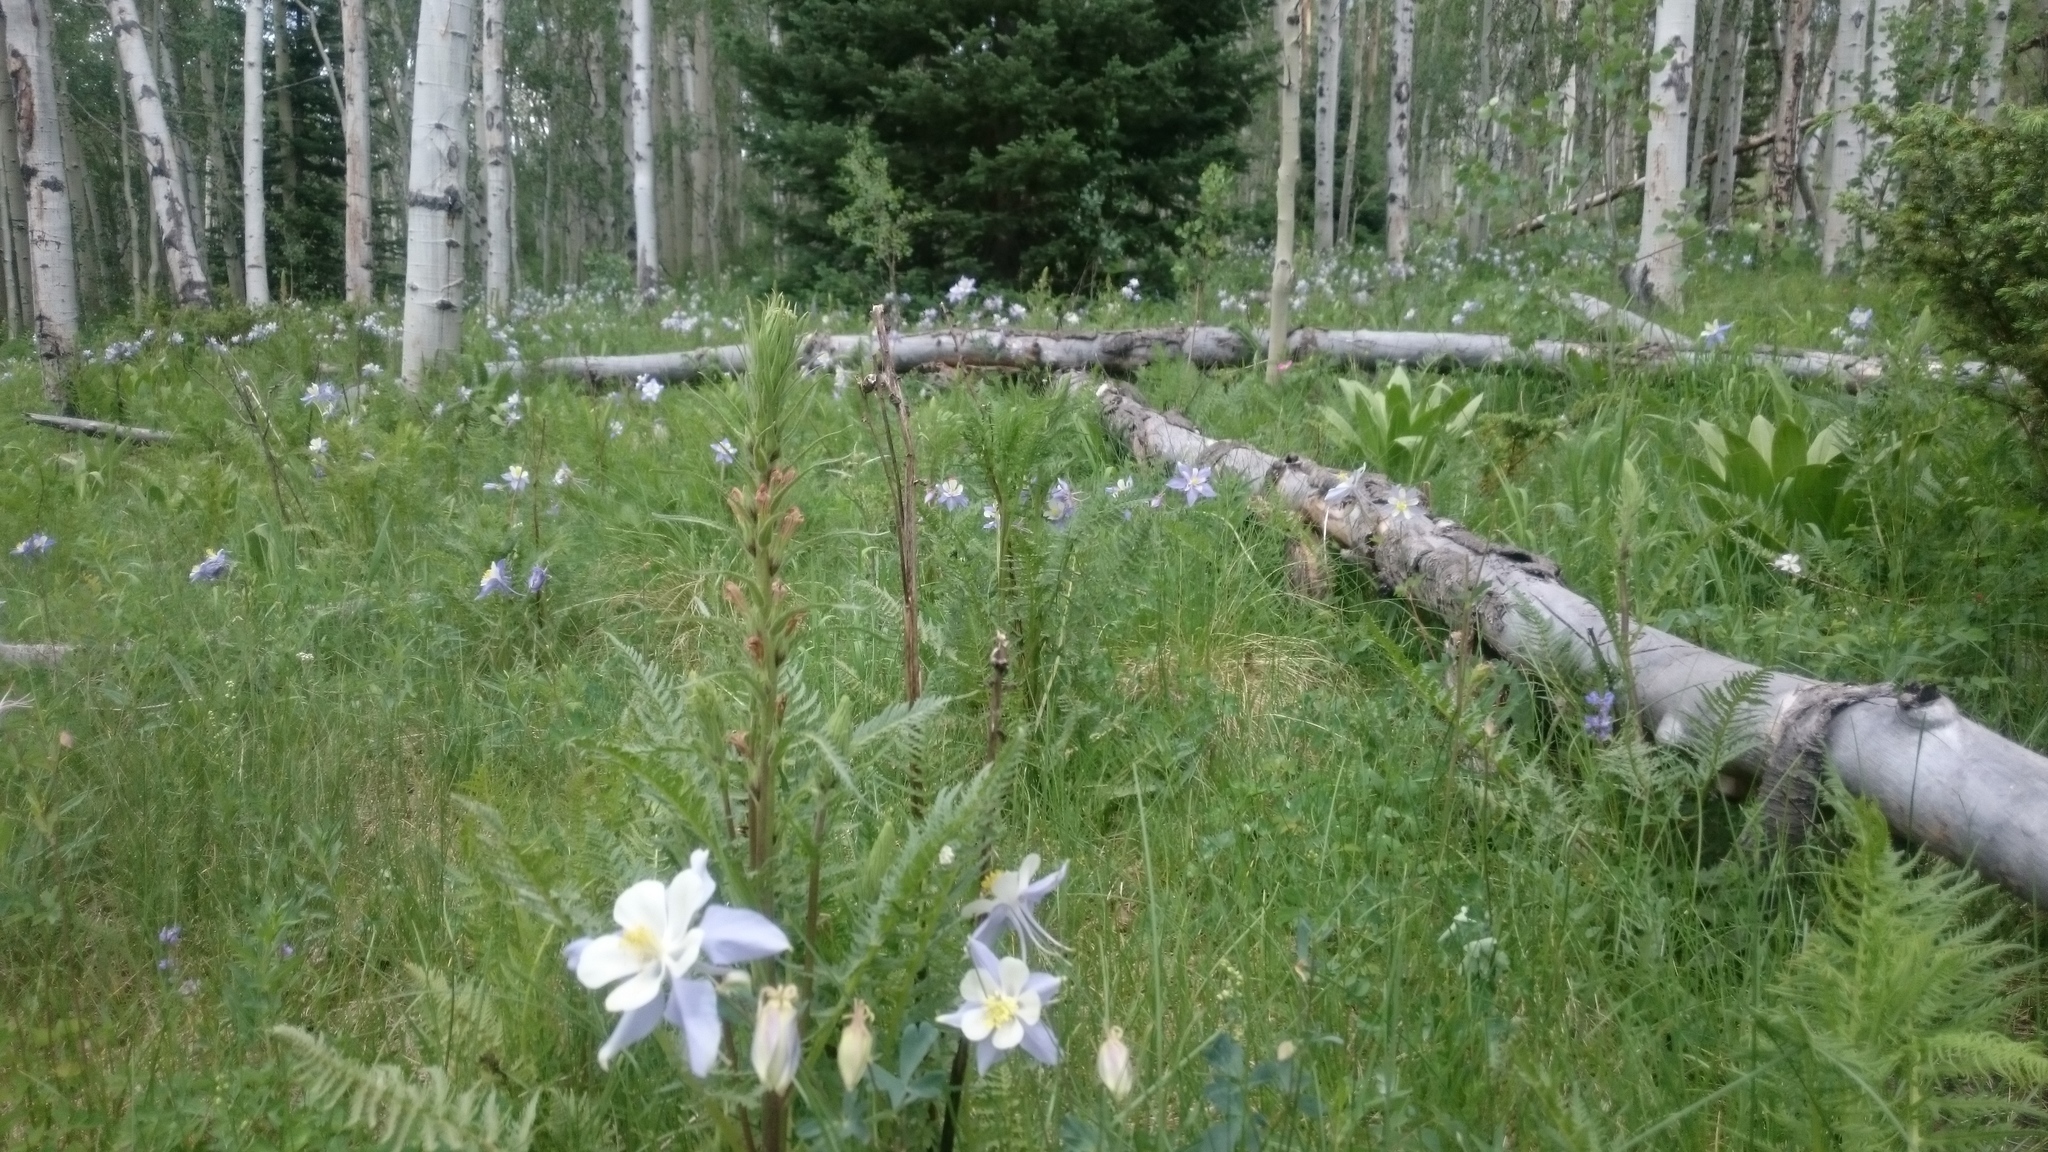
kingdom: Plantae
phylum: Tracheophyta
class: Magnoliopsida
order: Ranunculales
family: Ranunculaceae
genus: Aquilegia
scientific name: Aquilegia coerulea
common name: Rocky mountain columbine
